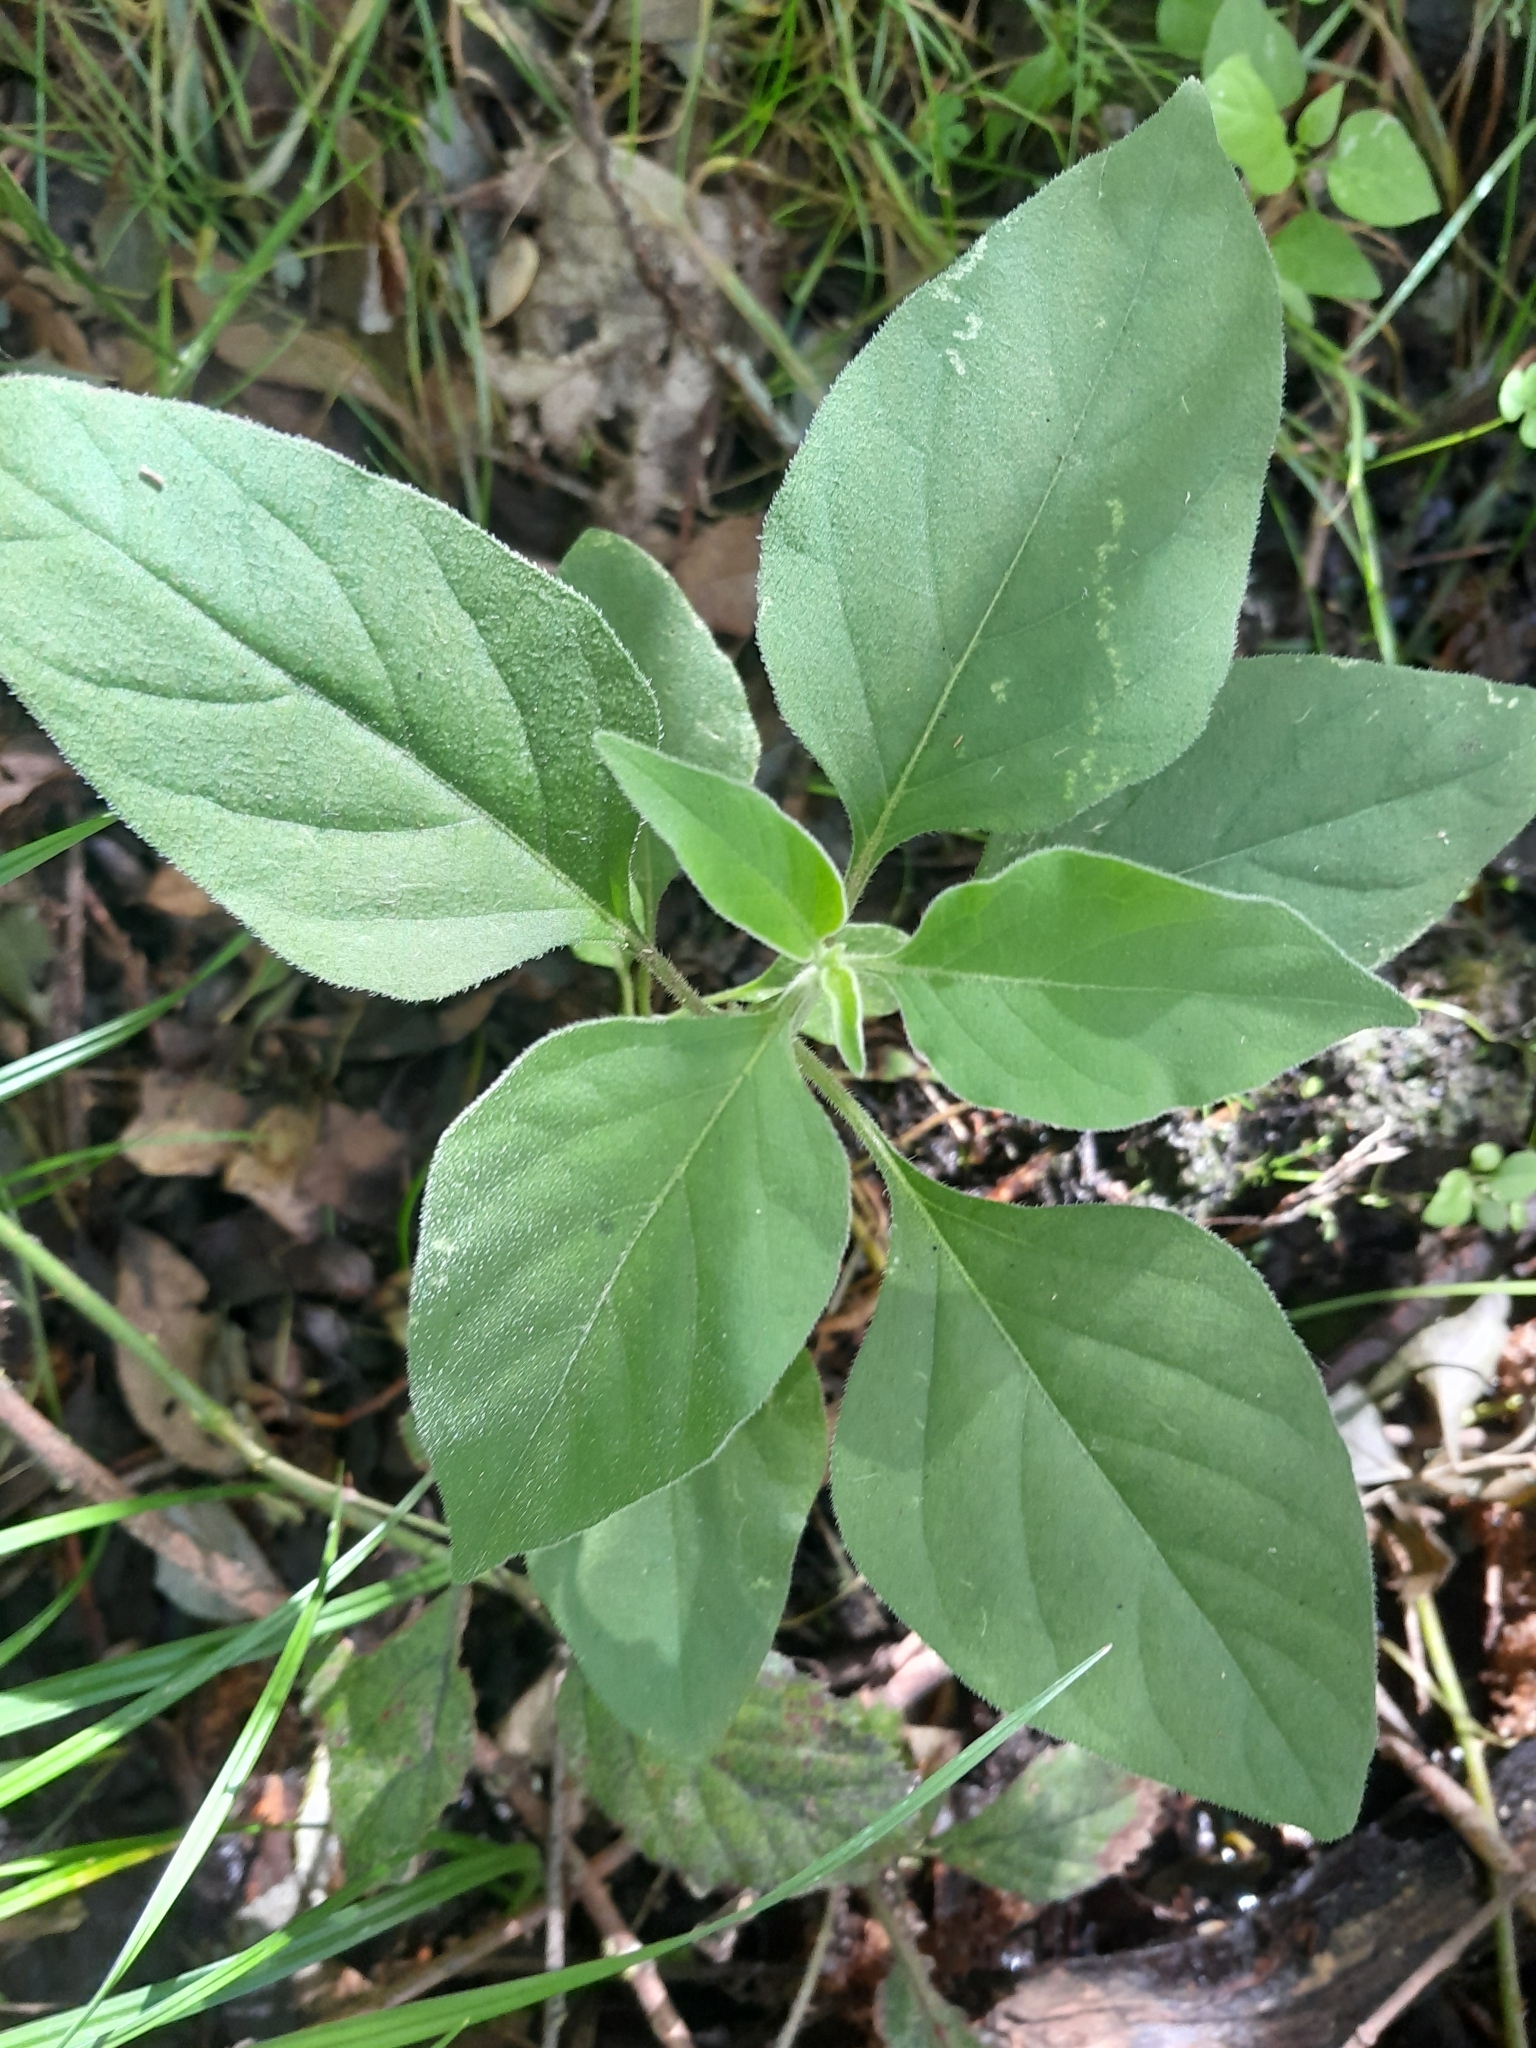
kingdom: Plantae
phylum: Tracheophyta
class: Magnoliopsida
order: Solanales
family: Solanaceae
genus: Solanum
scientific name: Solanum chenopodioides
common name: Tall nightshade
